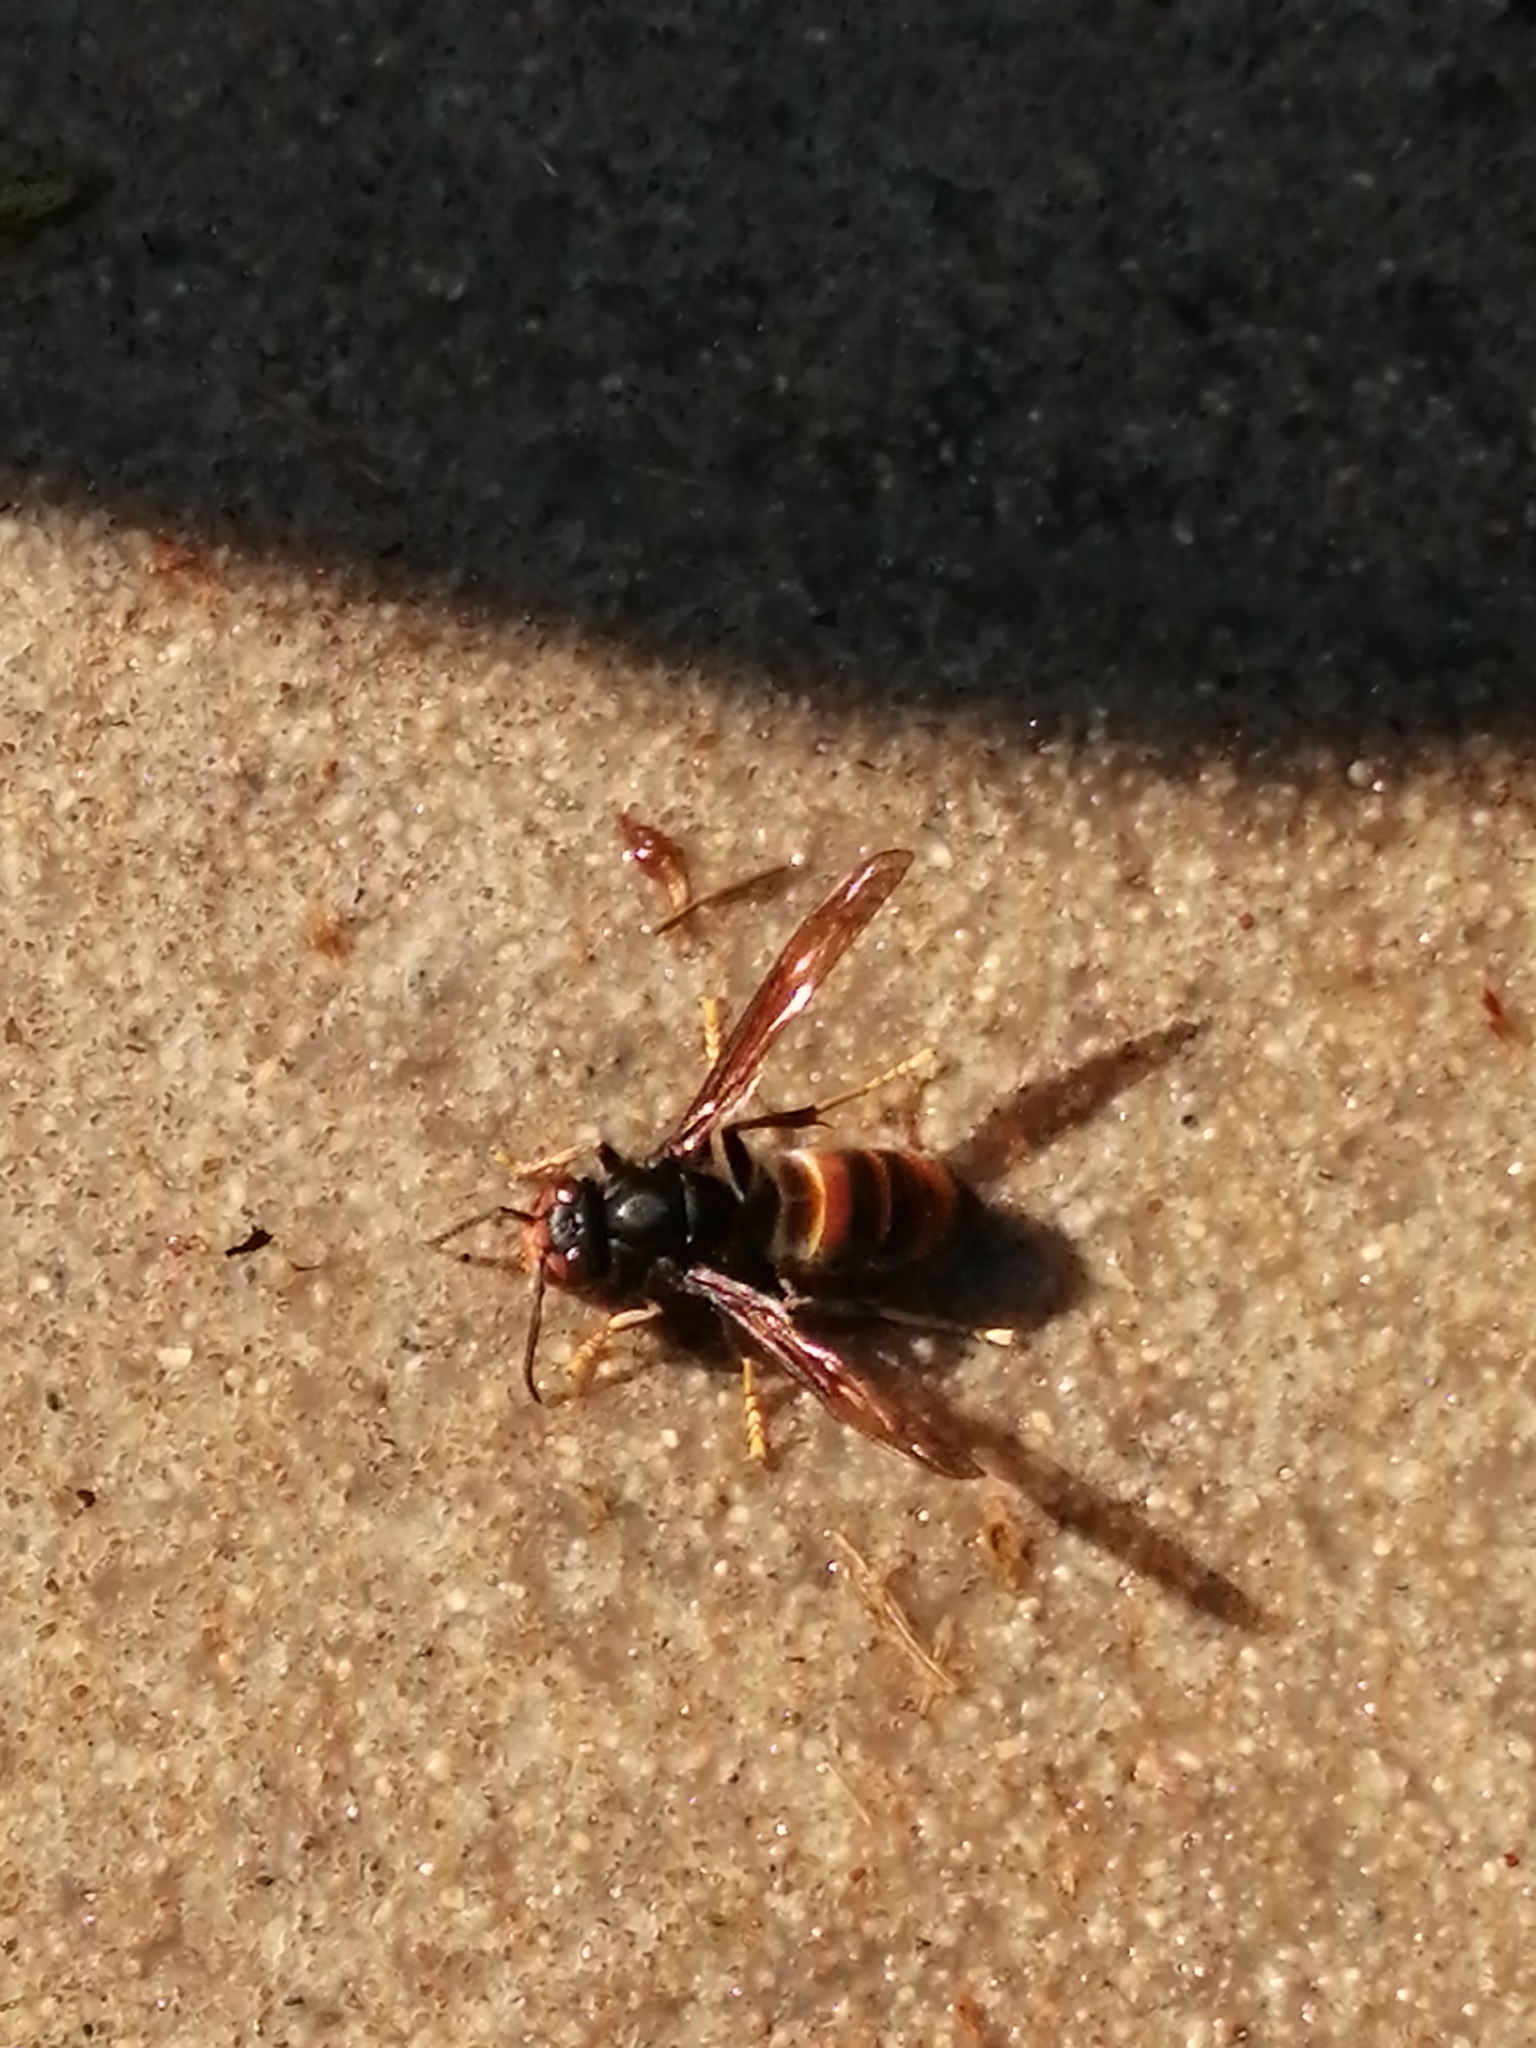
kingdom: Animalia
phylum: Arthropoda
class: Insecta
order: Hymenoptera
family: Vespidae
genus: Vespa
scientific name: Vespa velutina
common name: Asian hornet
